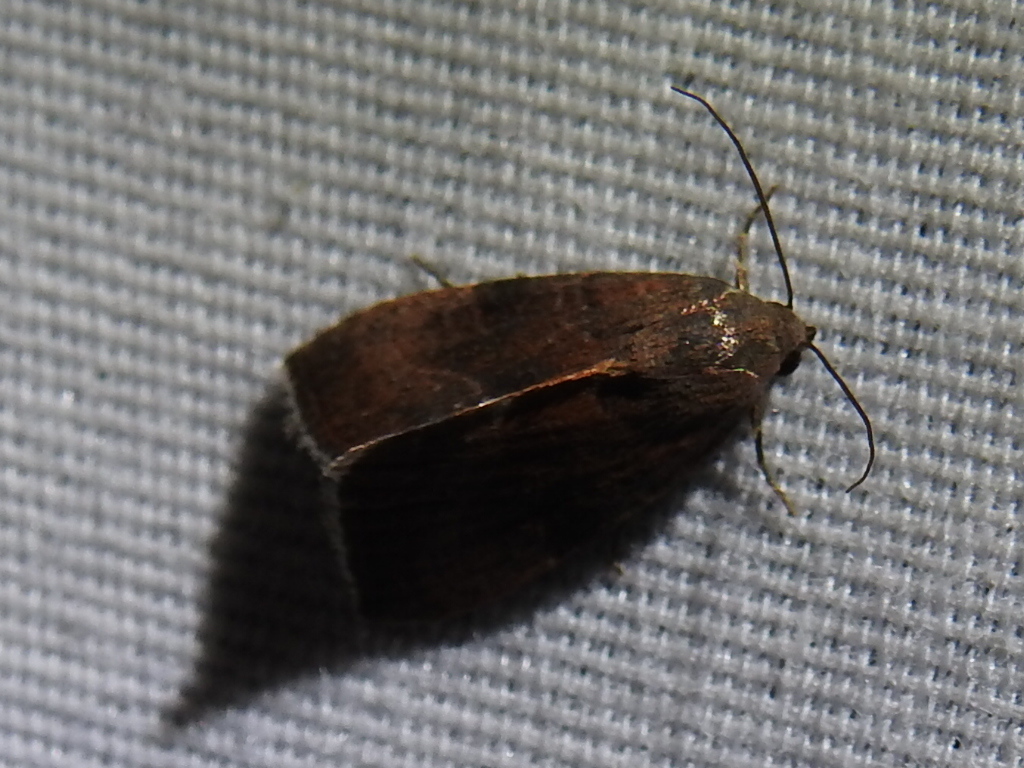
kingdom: Animalia
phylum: Arthropoda
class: Insecta
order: Lepidoptera
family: Noctuidae
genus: Galgula
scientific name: Galgula partita
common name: Wedgeling
